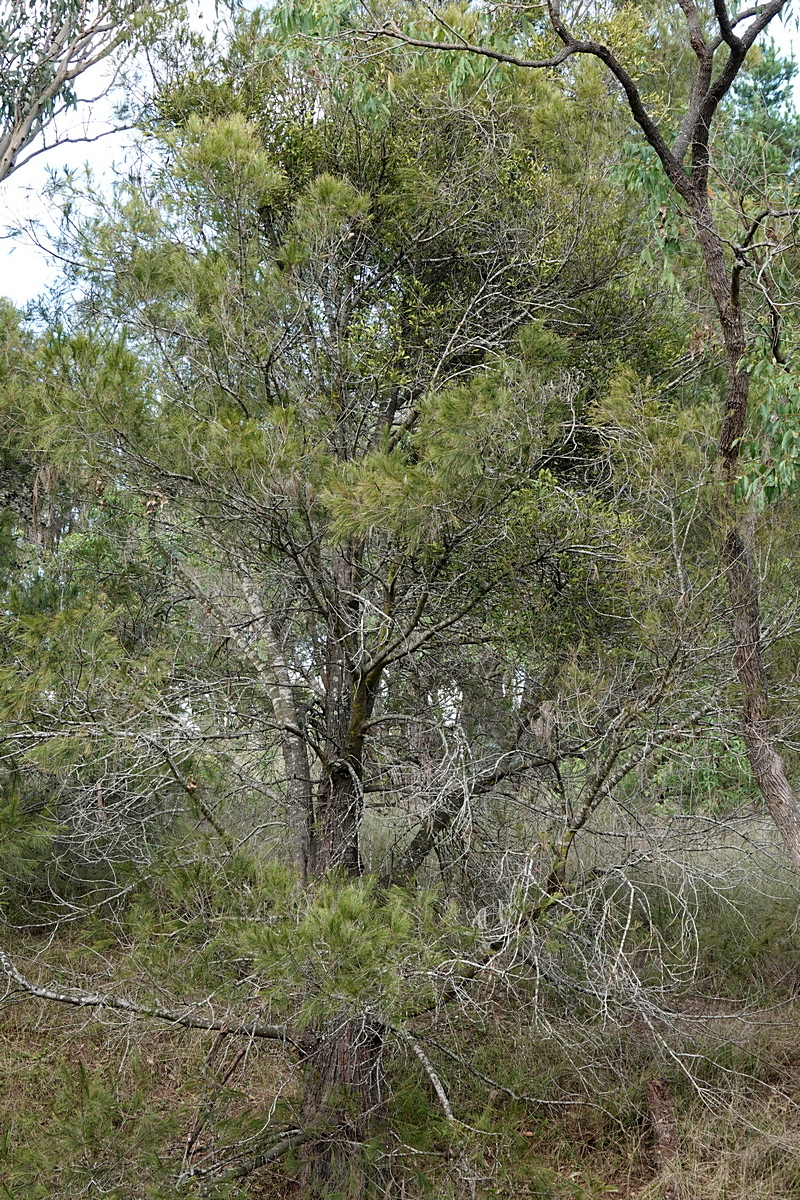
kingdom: Plantae
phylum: Tracheophyta
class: Magnoliopsida
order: Santalales
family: Loranthaceae
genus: Amyema
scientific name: Amyema congener
